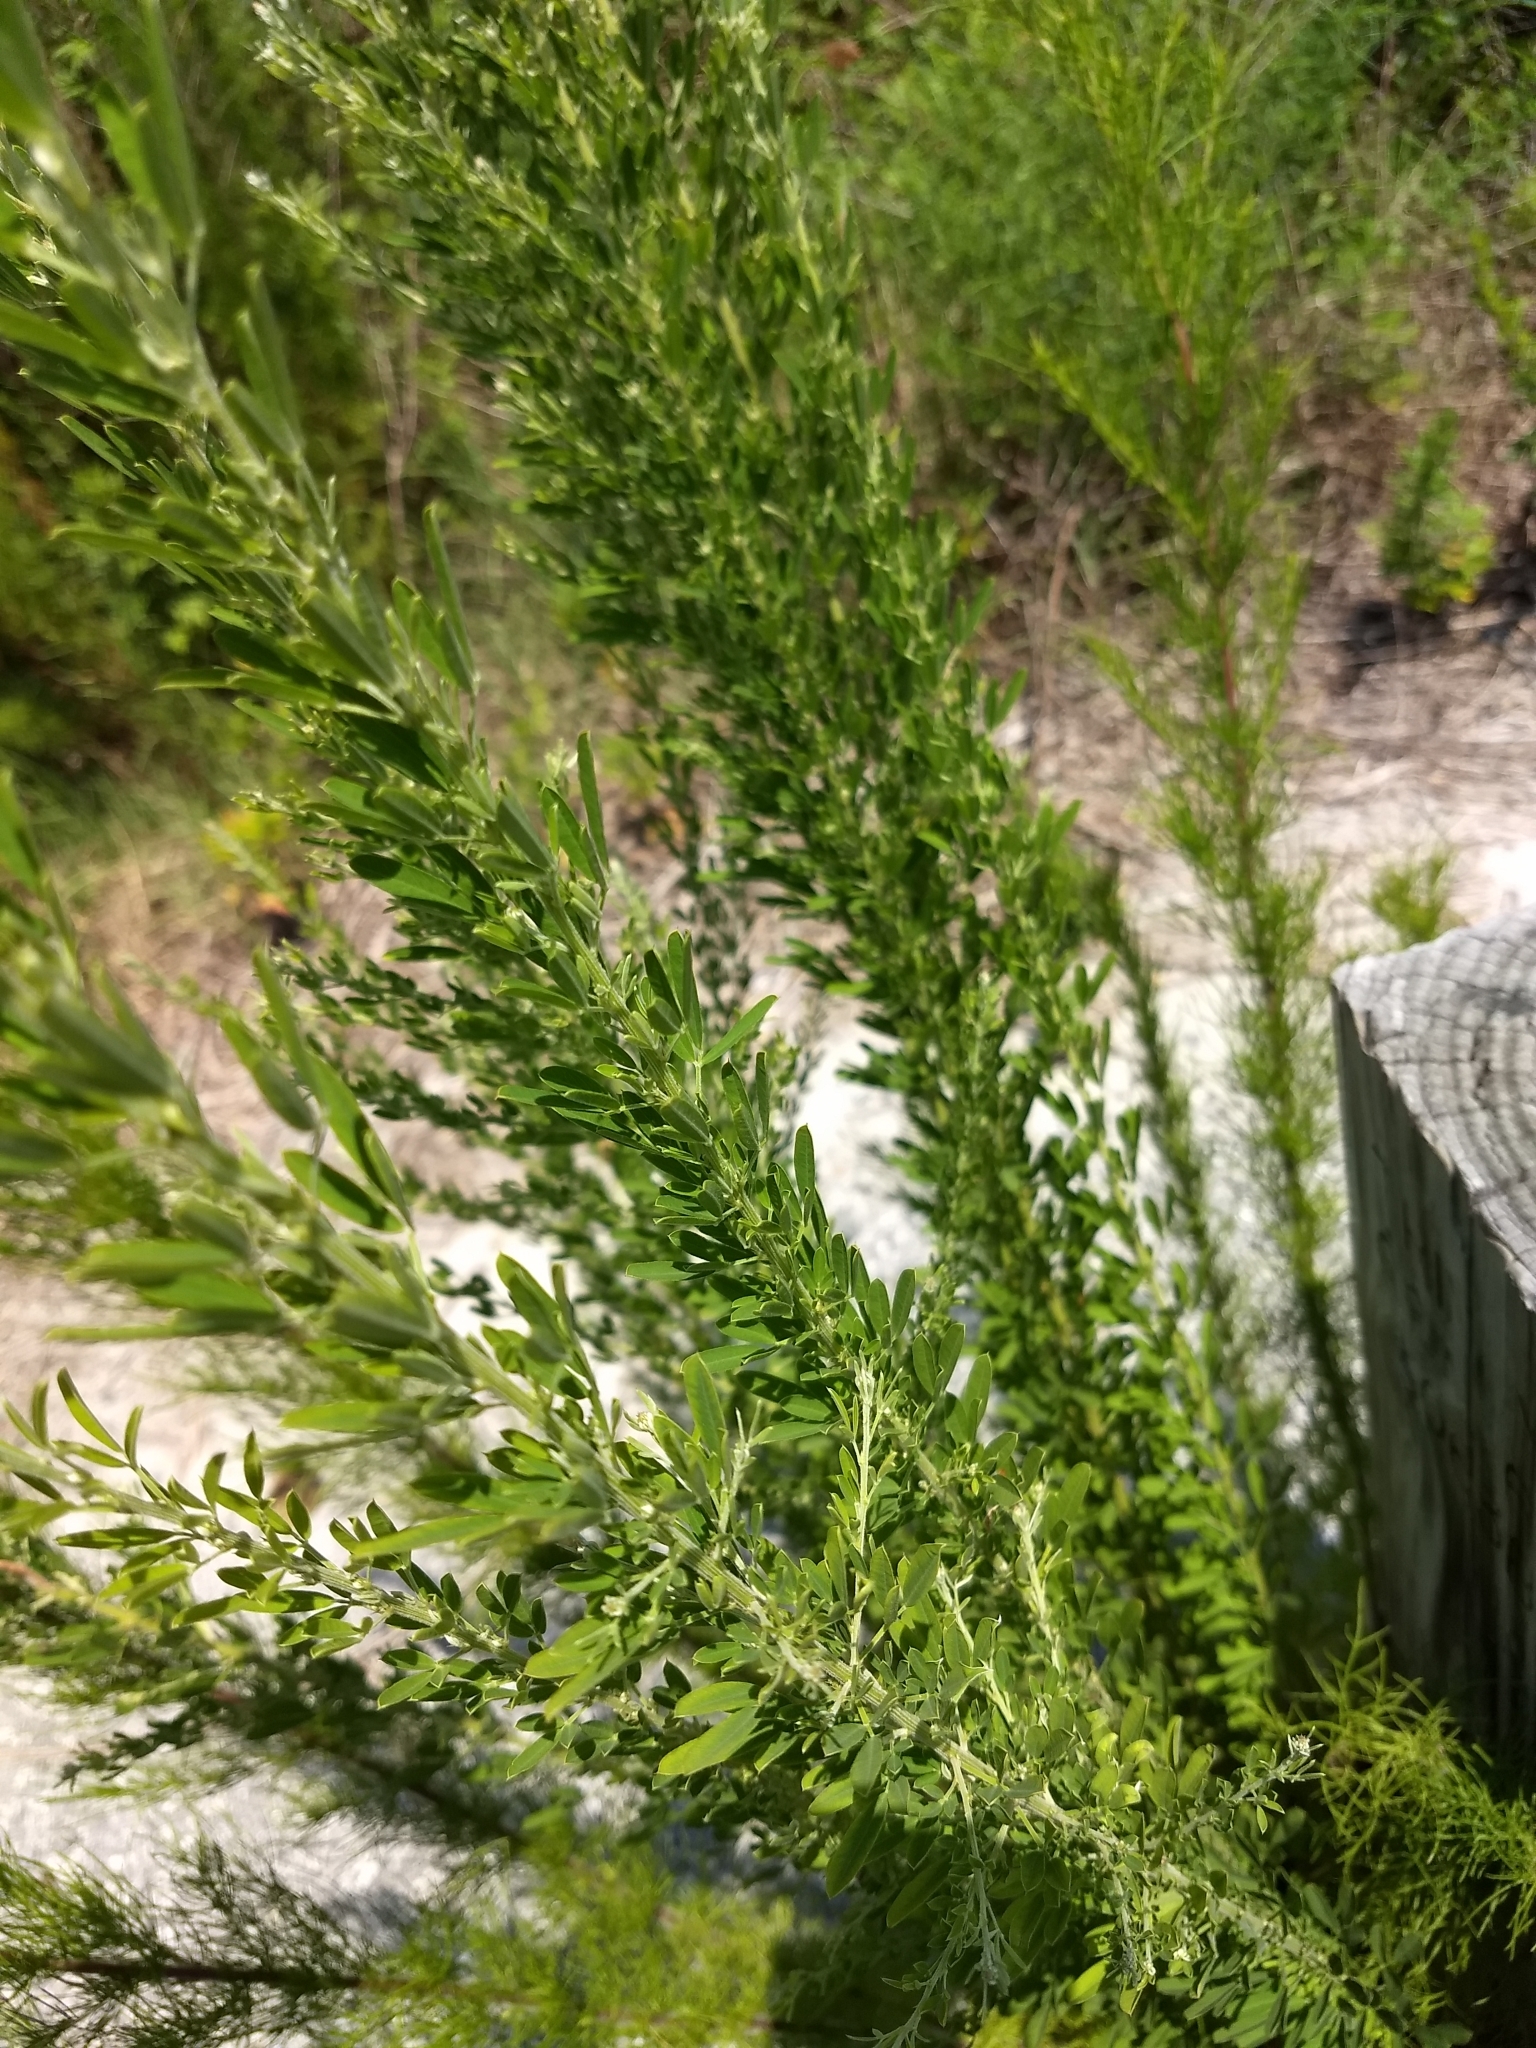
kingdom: Plantae
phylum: Tracheophyta
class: Magnoliopsida
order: Fabales
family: Fabaceae
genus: Lespedeza
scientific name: Lespedeza cuneata
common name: Chinese bush-clover
